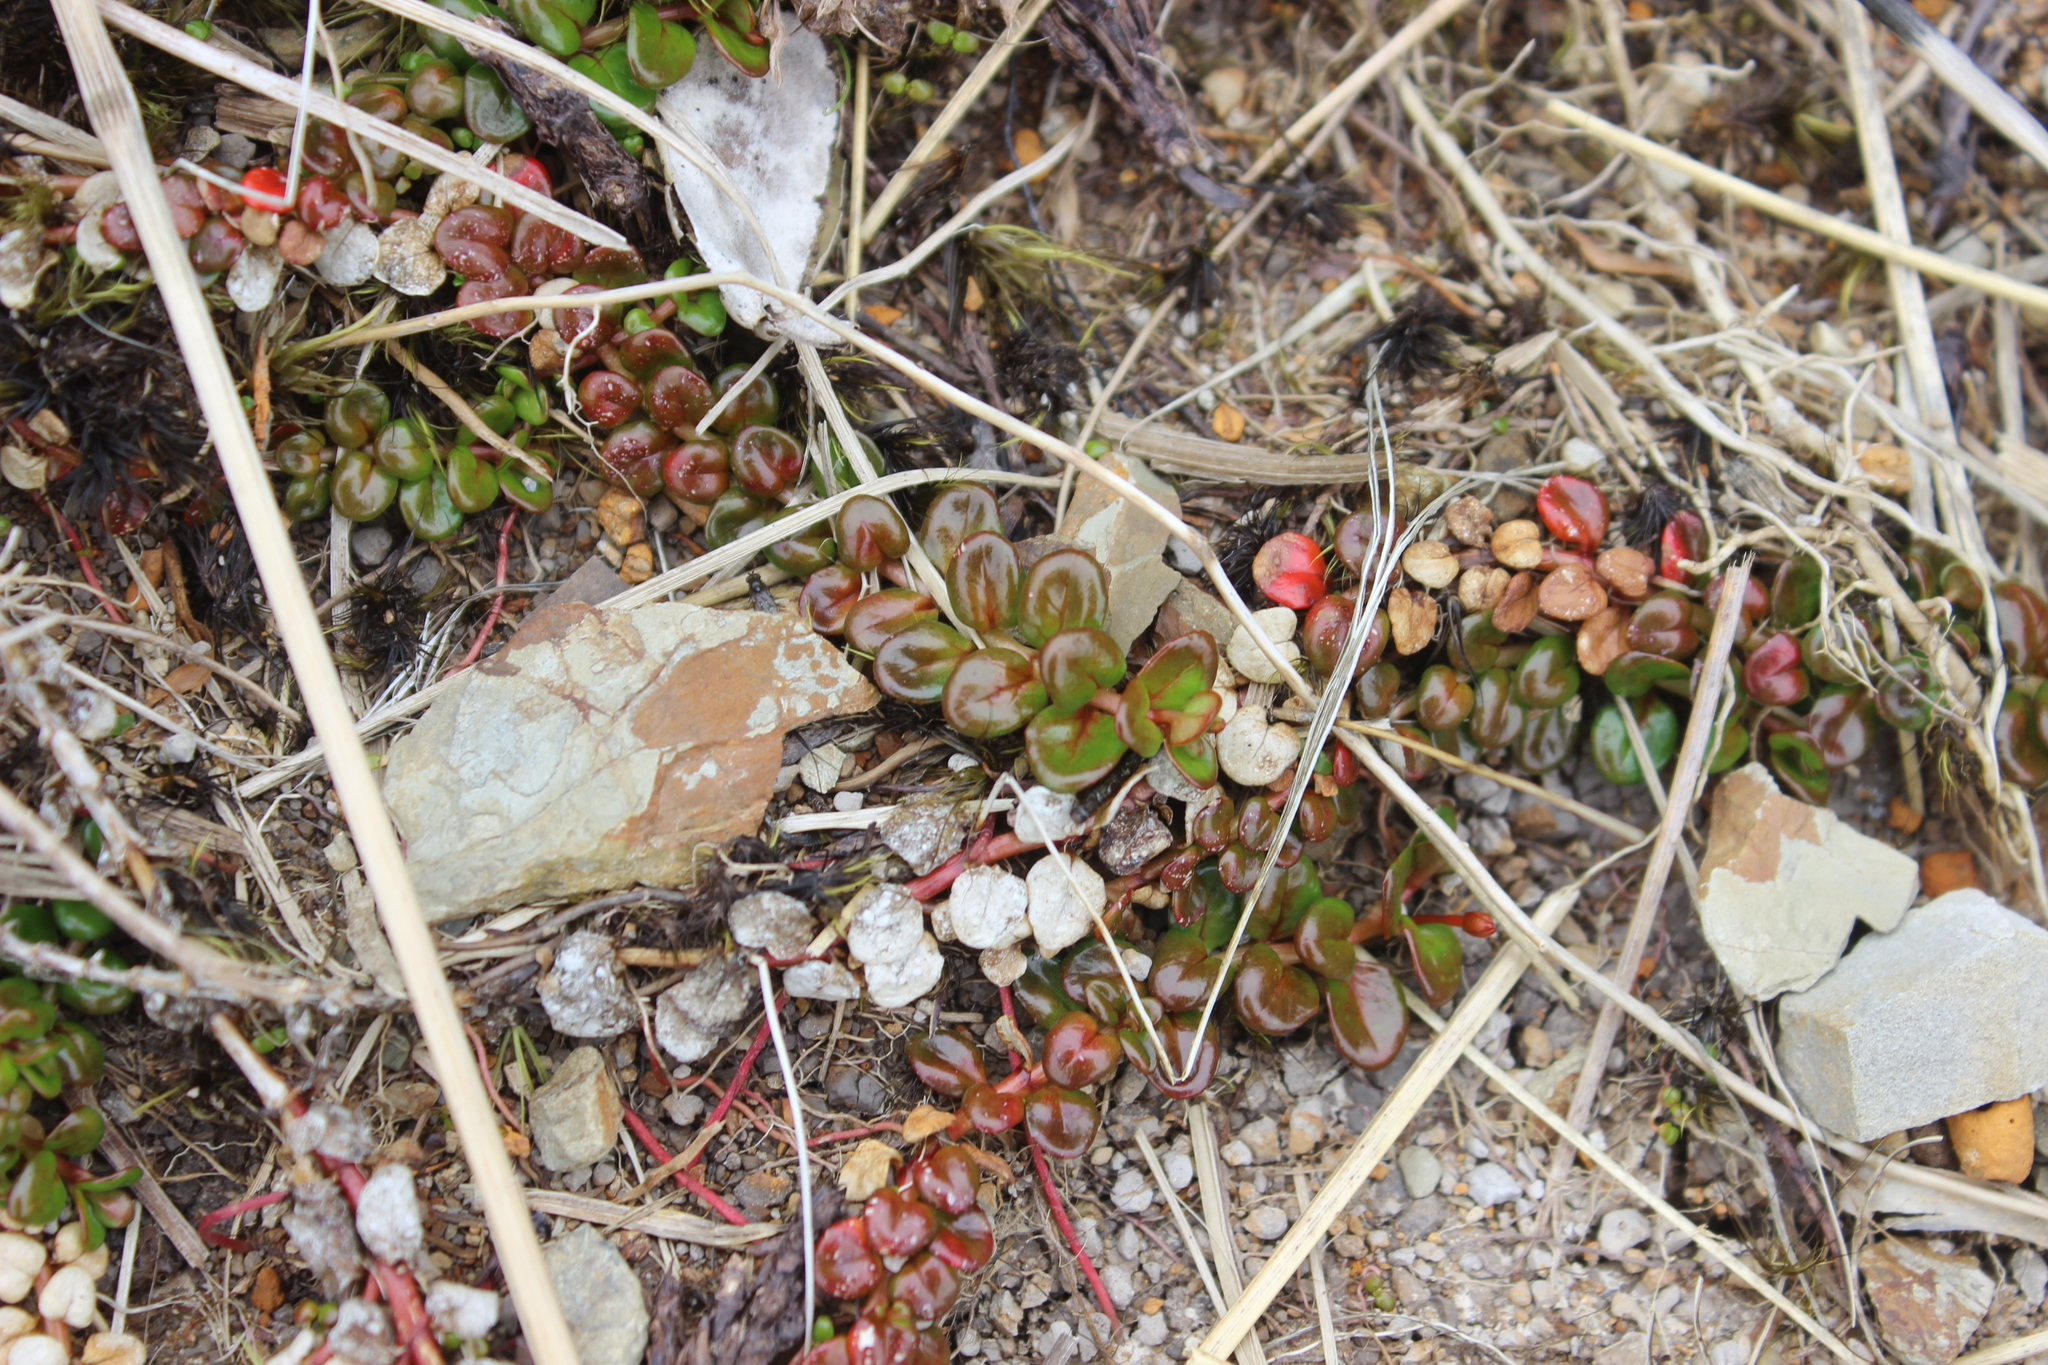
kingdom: Plantae
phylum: Tracheophyta
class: Magnoliopsida
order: Myrtales
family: Onagraceae
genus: Epilobium
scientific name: Epilobium pernitens
